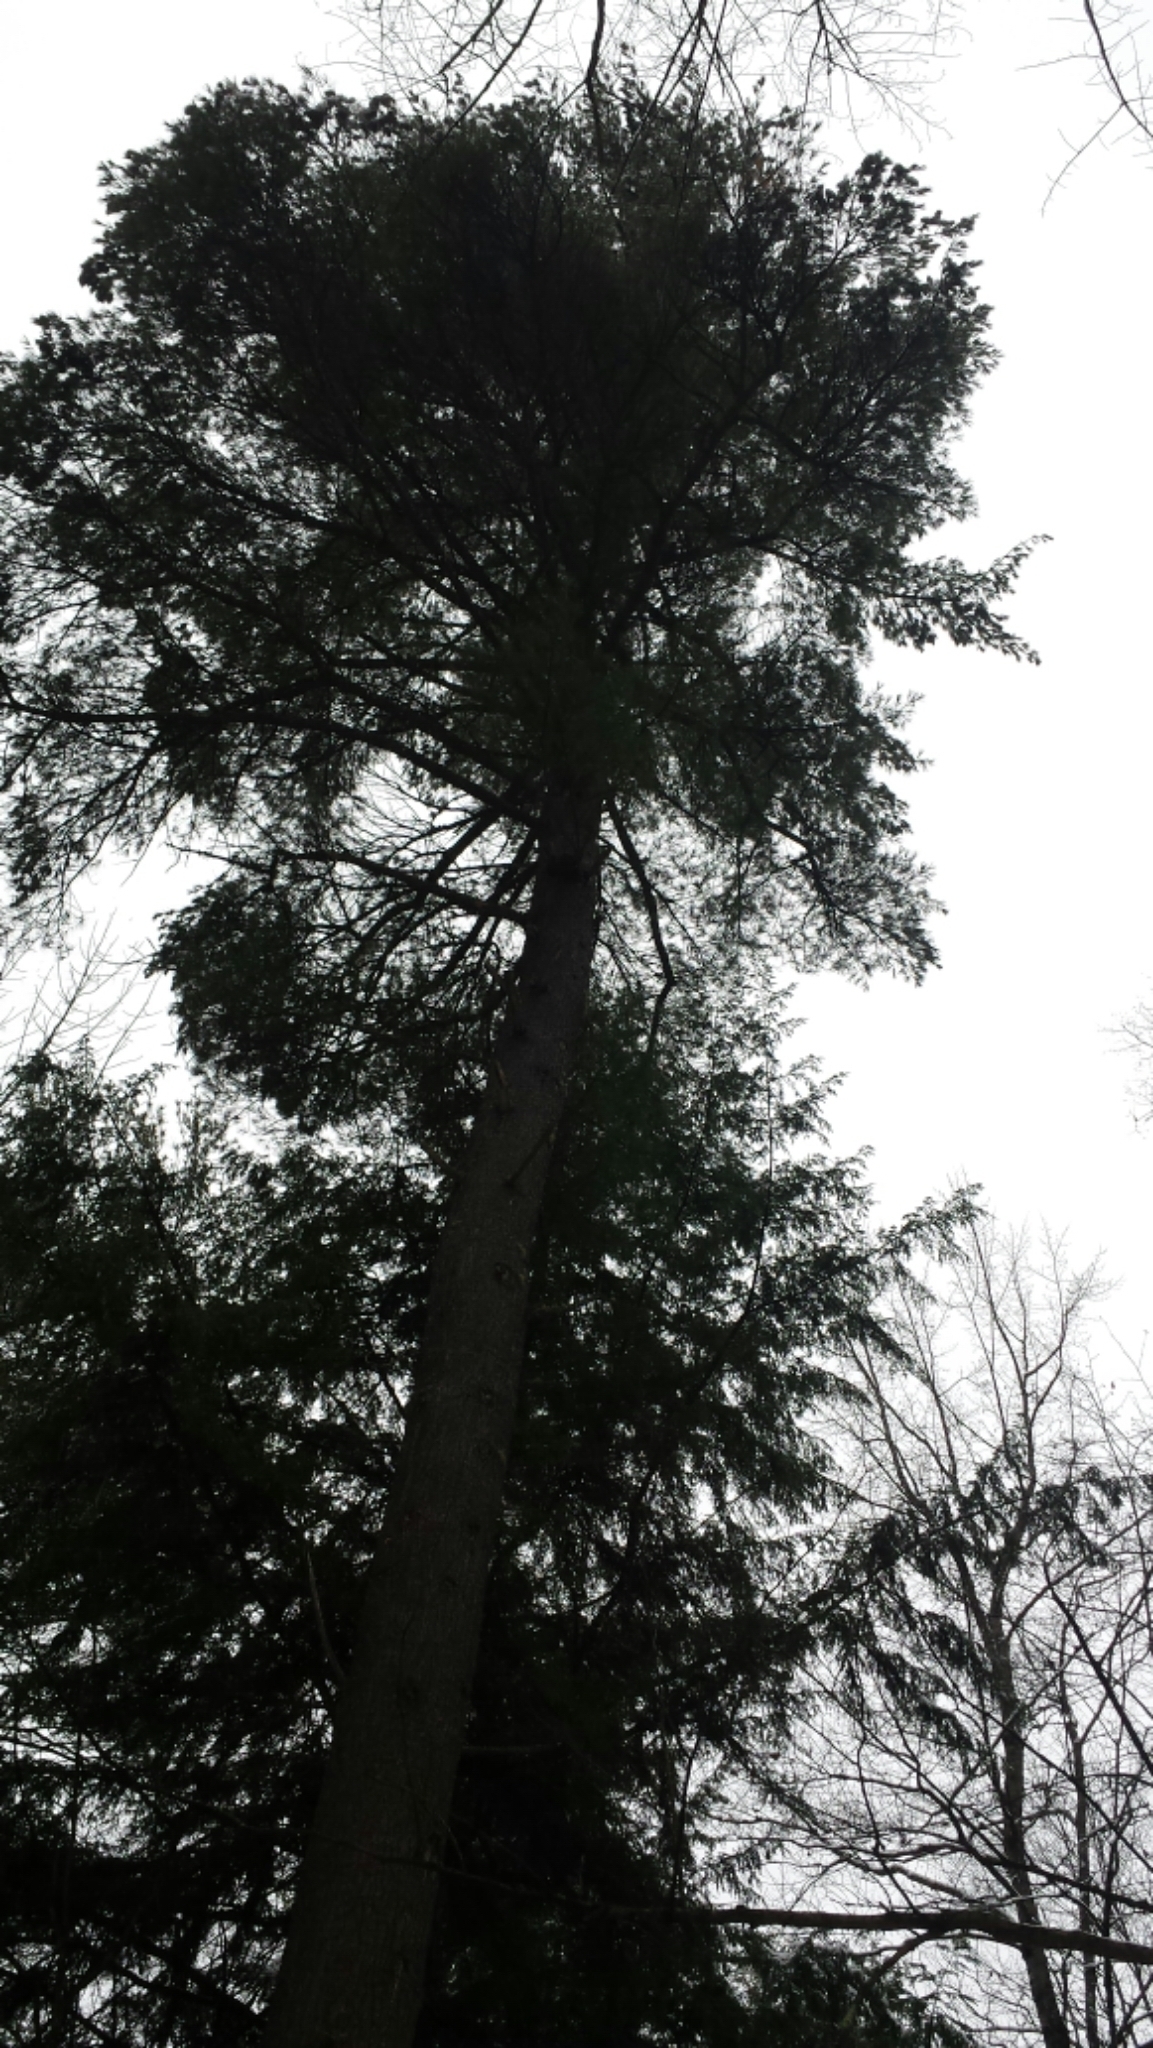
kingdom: Plantae
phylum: Tracheophyta
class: Pinopsida
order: Pinales
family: Pinaceae
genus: Pinus
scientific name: Pinus strobus
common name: Weymouth pine
